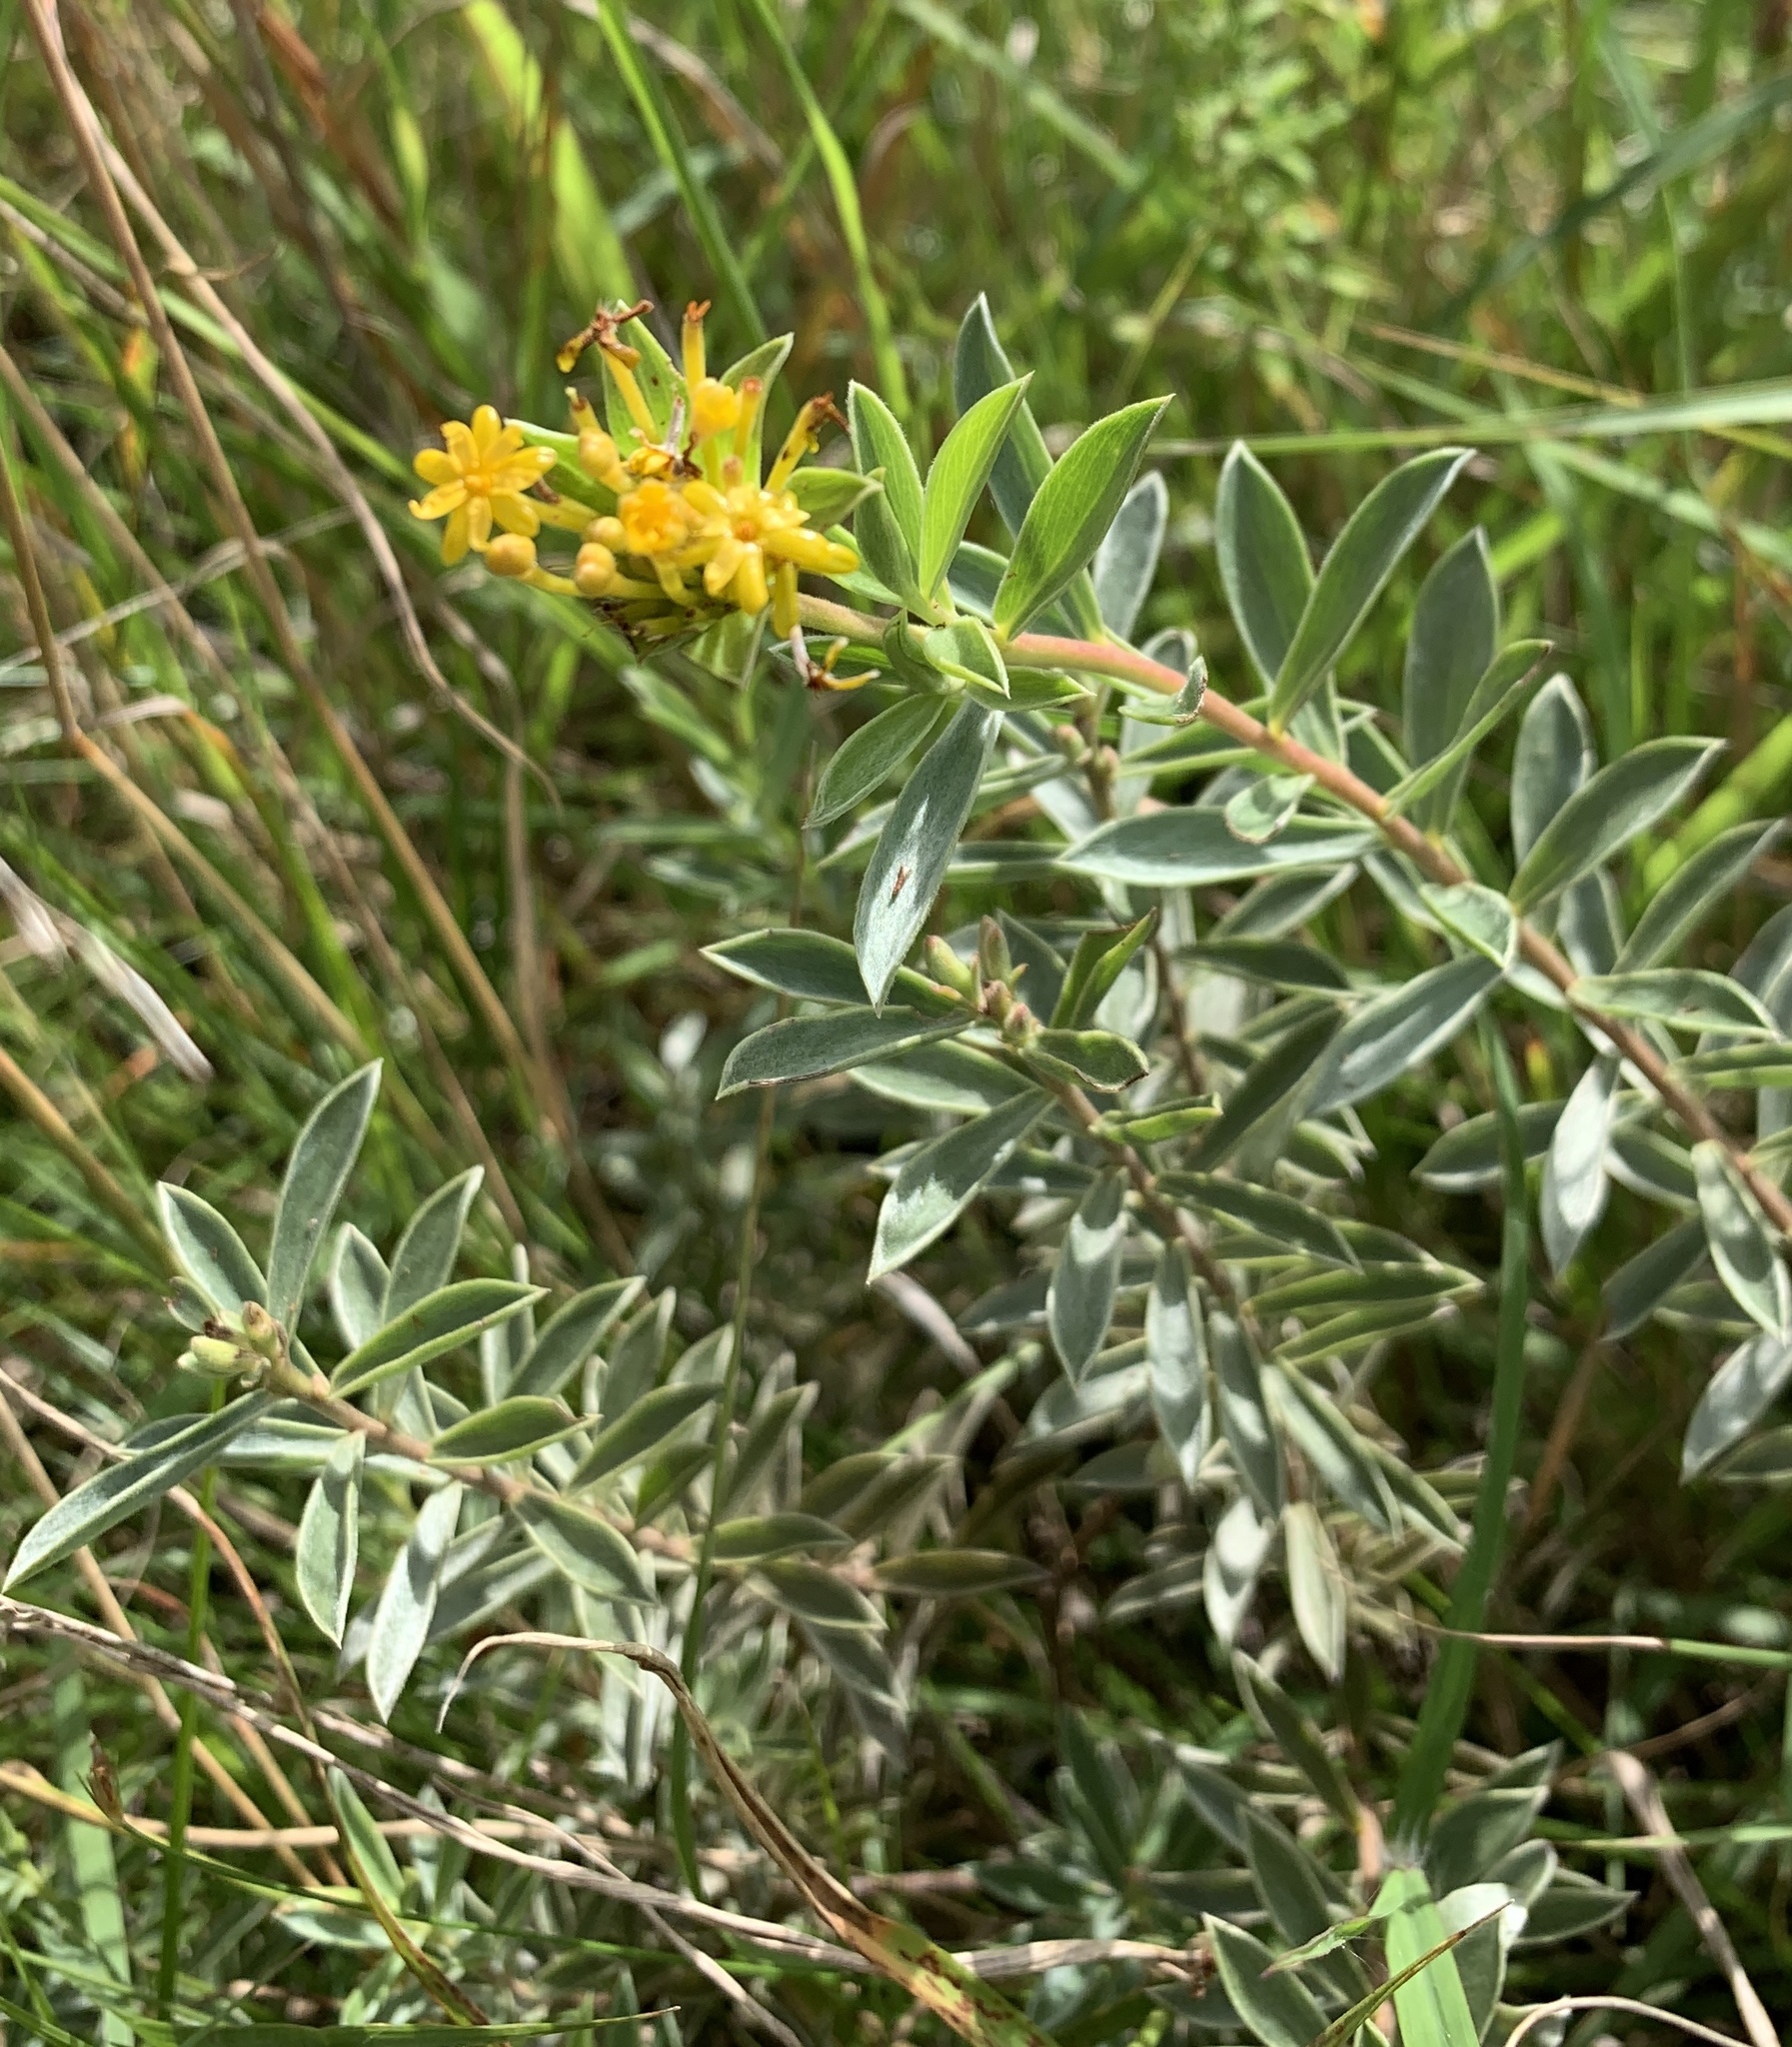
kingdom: Plantae
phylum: Tracheophyta
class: Magnoliopsida
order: Malvales
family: Thymelaeaceae
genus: Gnidia
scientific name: Gnidia capitata
